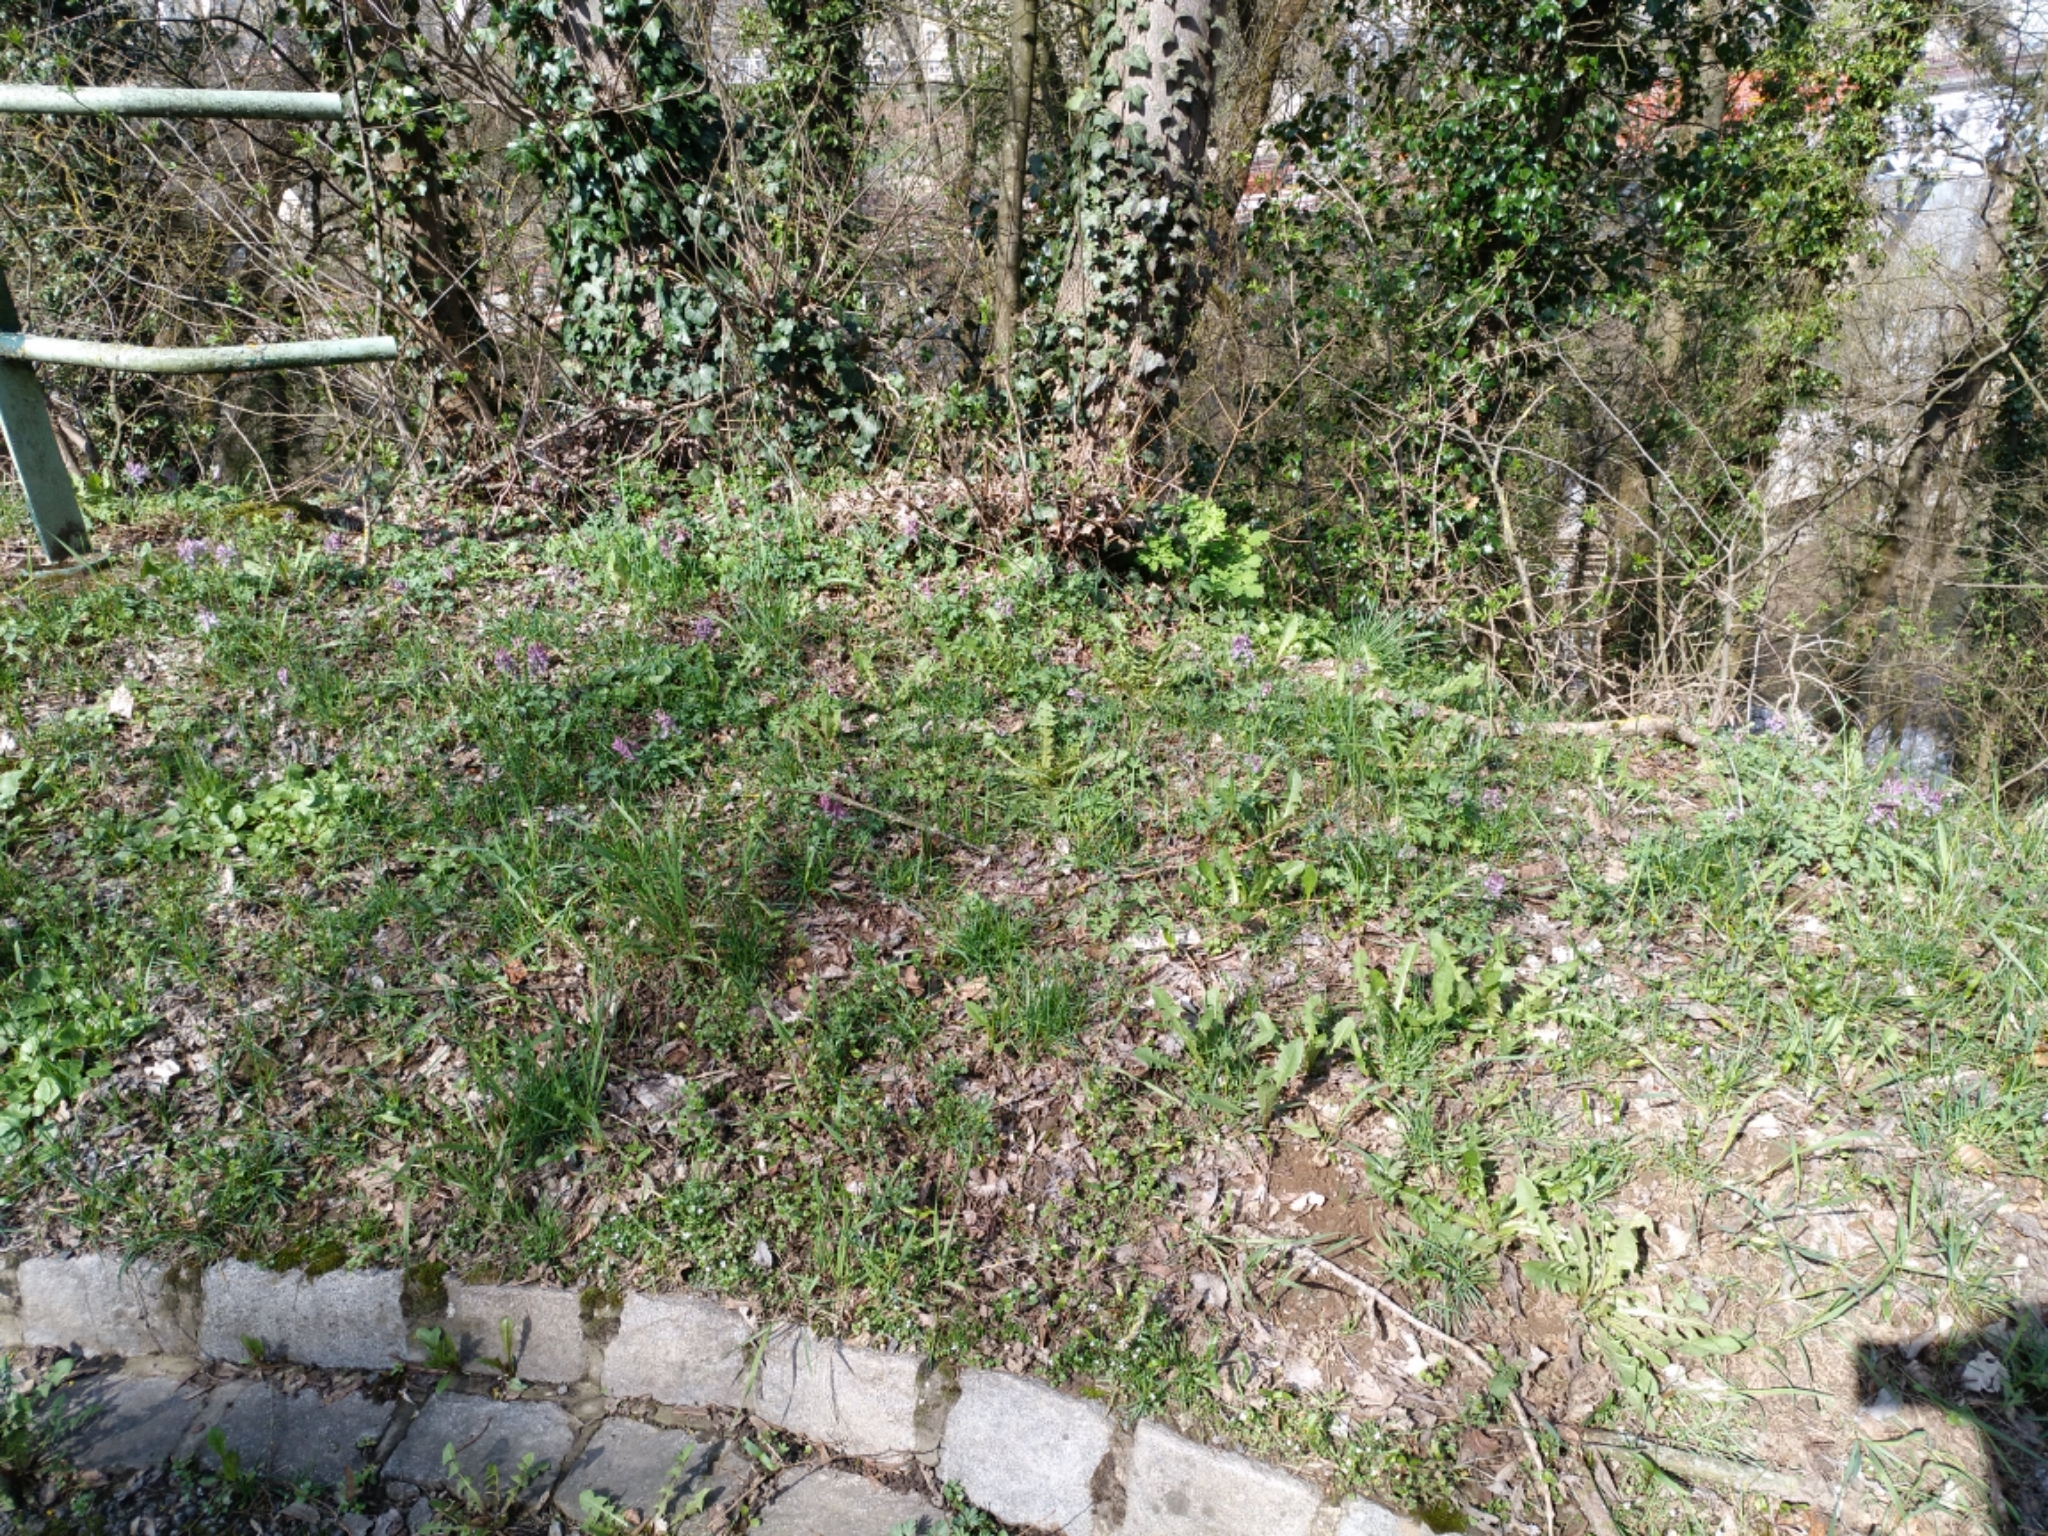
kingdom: Plantae
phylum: Tracheophyta
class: Magnoliopsida
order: Ranunculales
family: Papaveraceae
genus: Corydalis
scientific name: Corydalis solida
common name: Bird-in-a-bush
